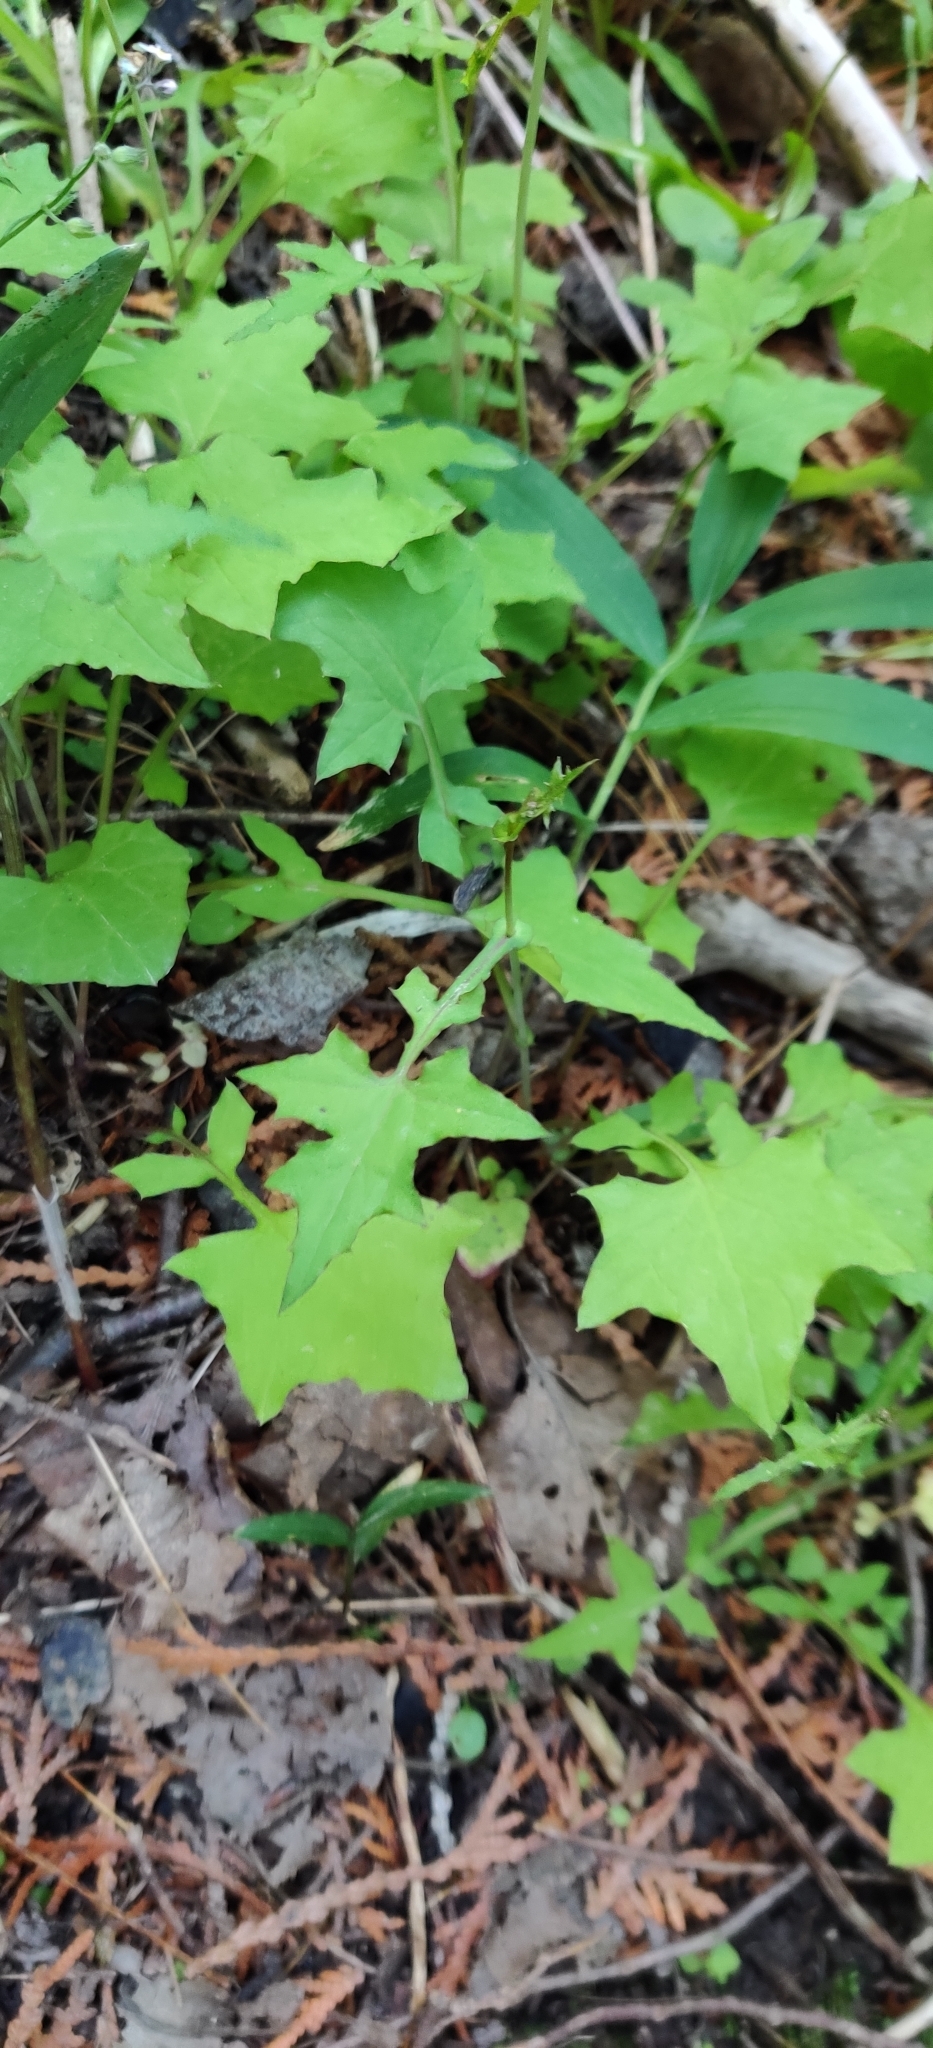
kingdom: Plantae
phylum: Tracheophyta
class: Magnoliopsida
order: Asterales
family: Asteraceae
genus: Mycelis
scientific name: Mycelis muralis
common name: Wall lettuce
